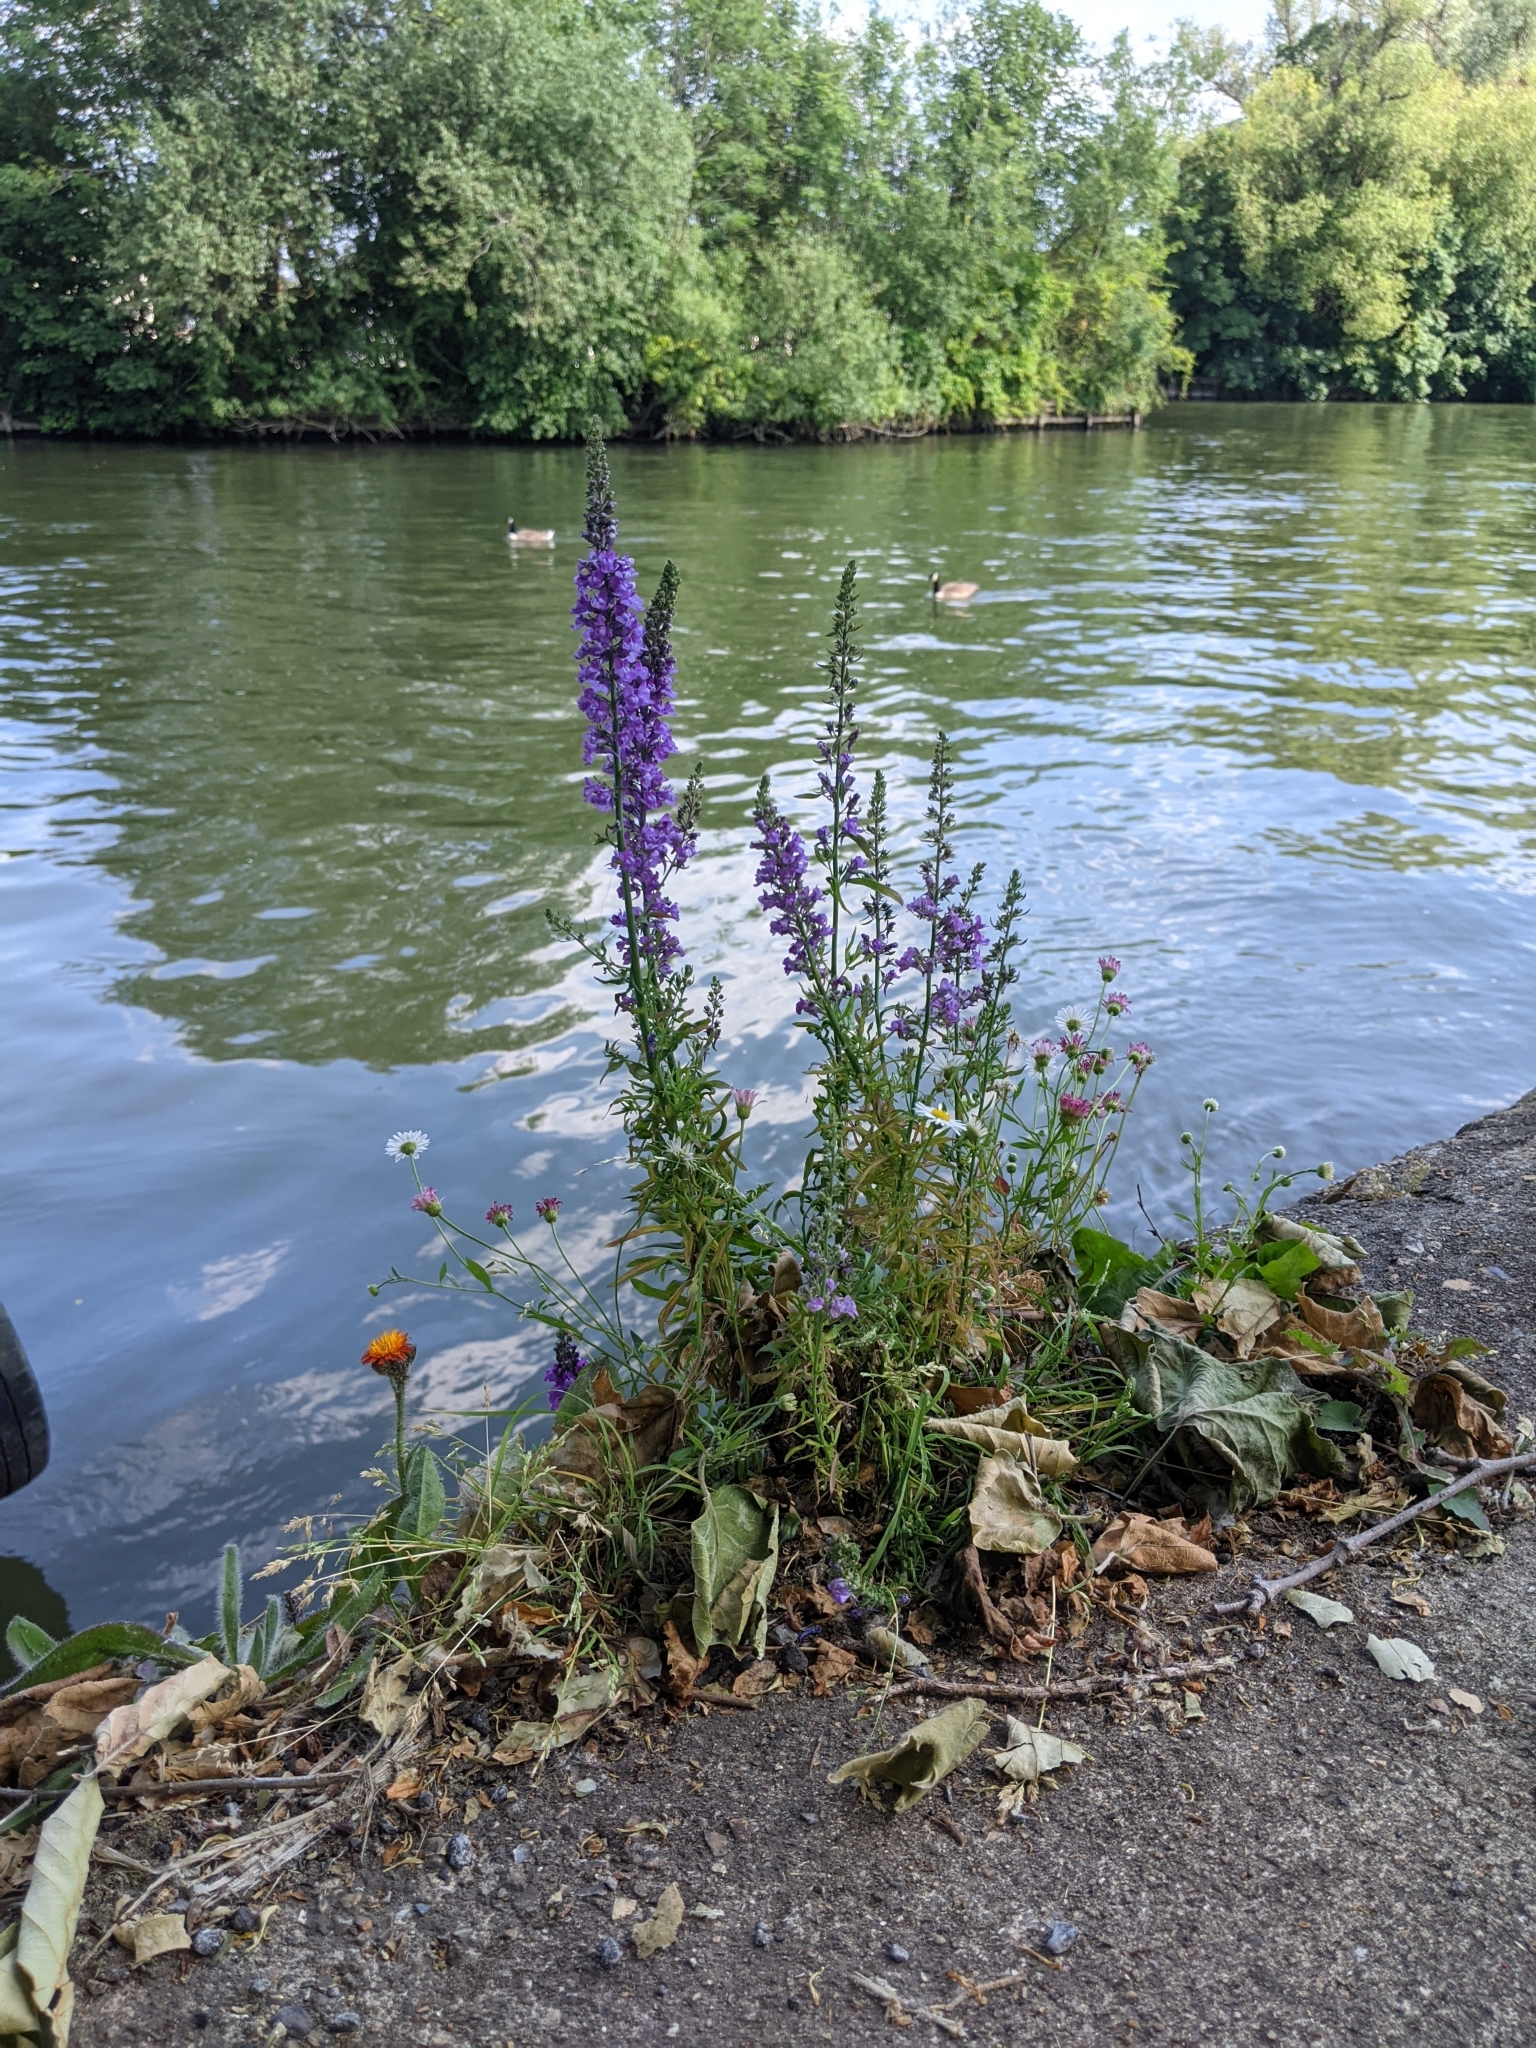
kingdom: Plantae
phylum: Tracheophyta
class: Magnoliopsida
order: Lamiales
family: Plantaginaceae
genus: Linaria
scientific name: Linaria purpurea
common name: Purple toadflax
